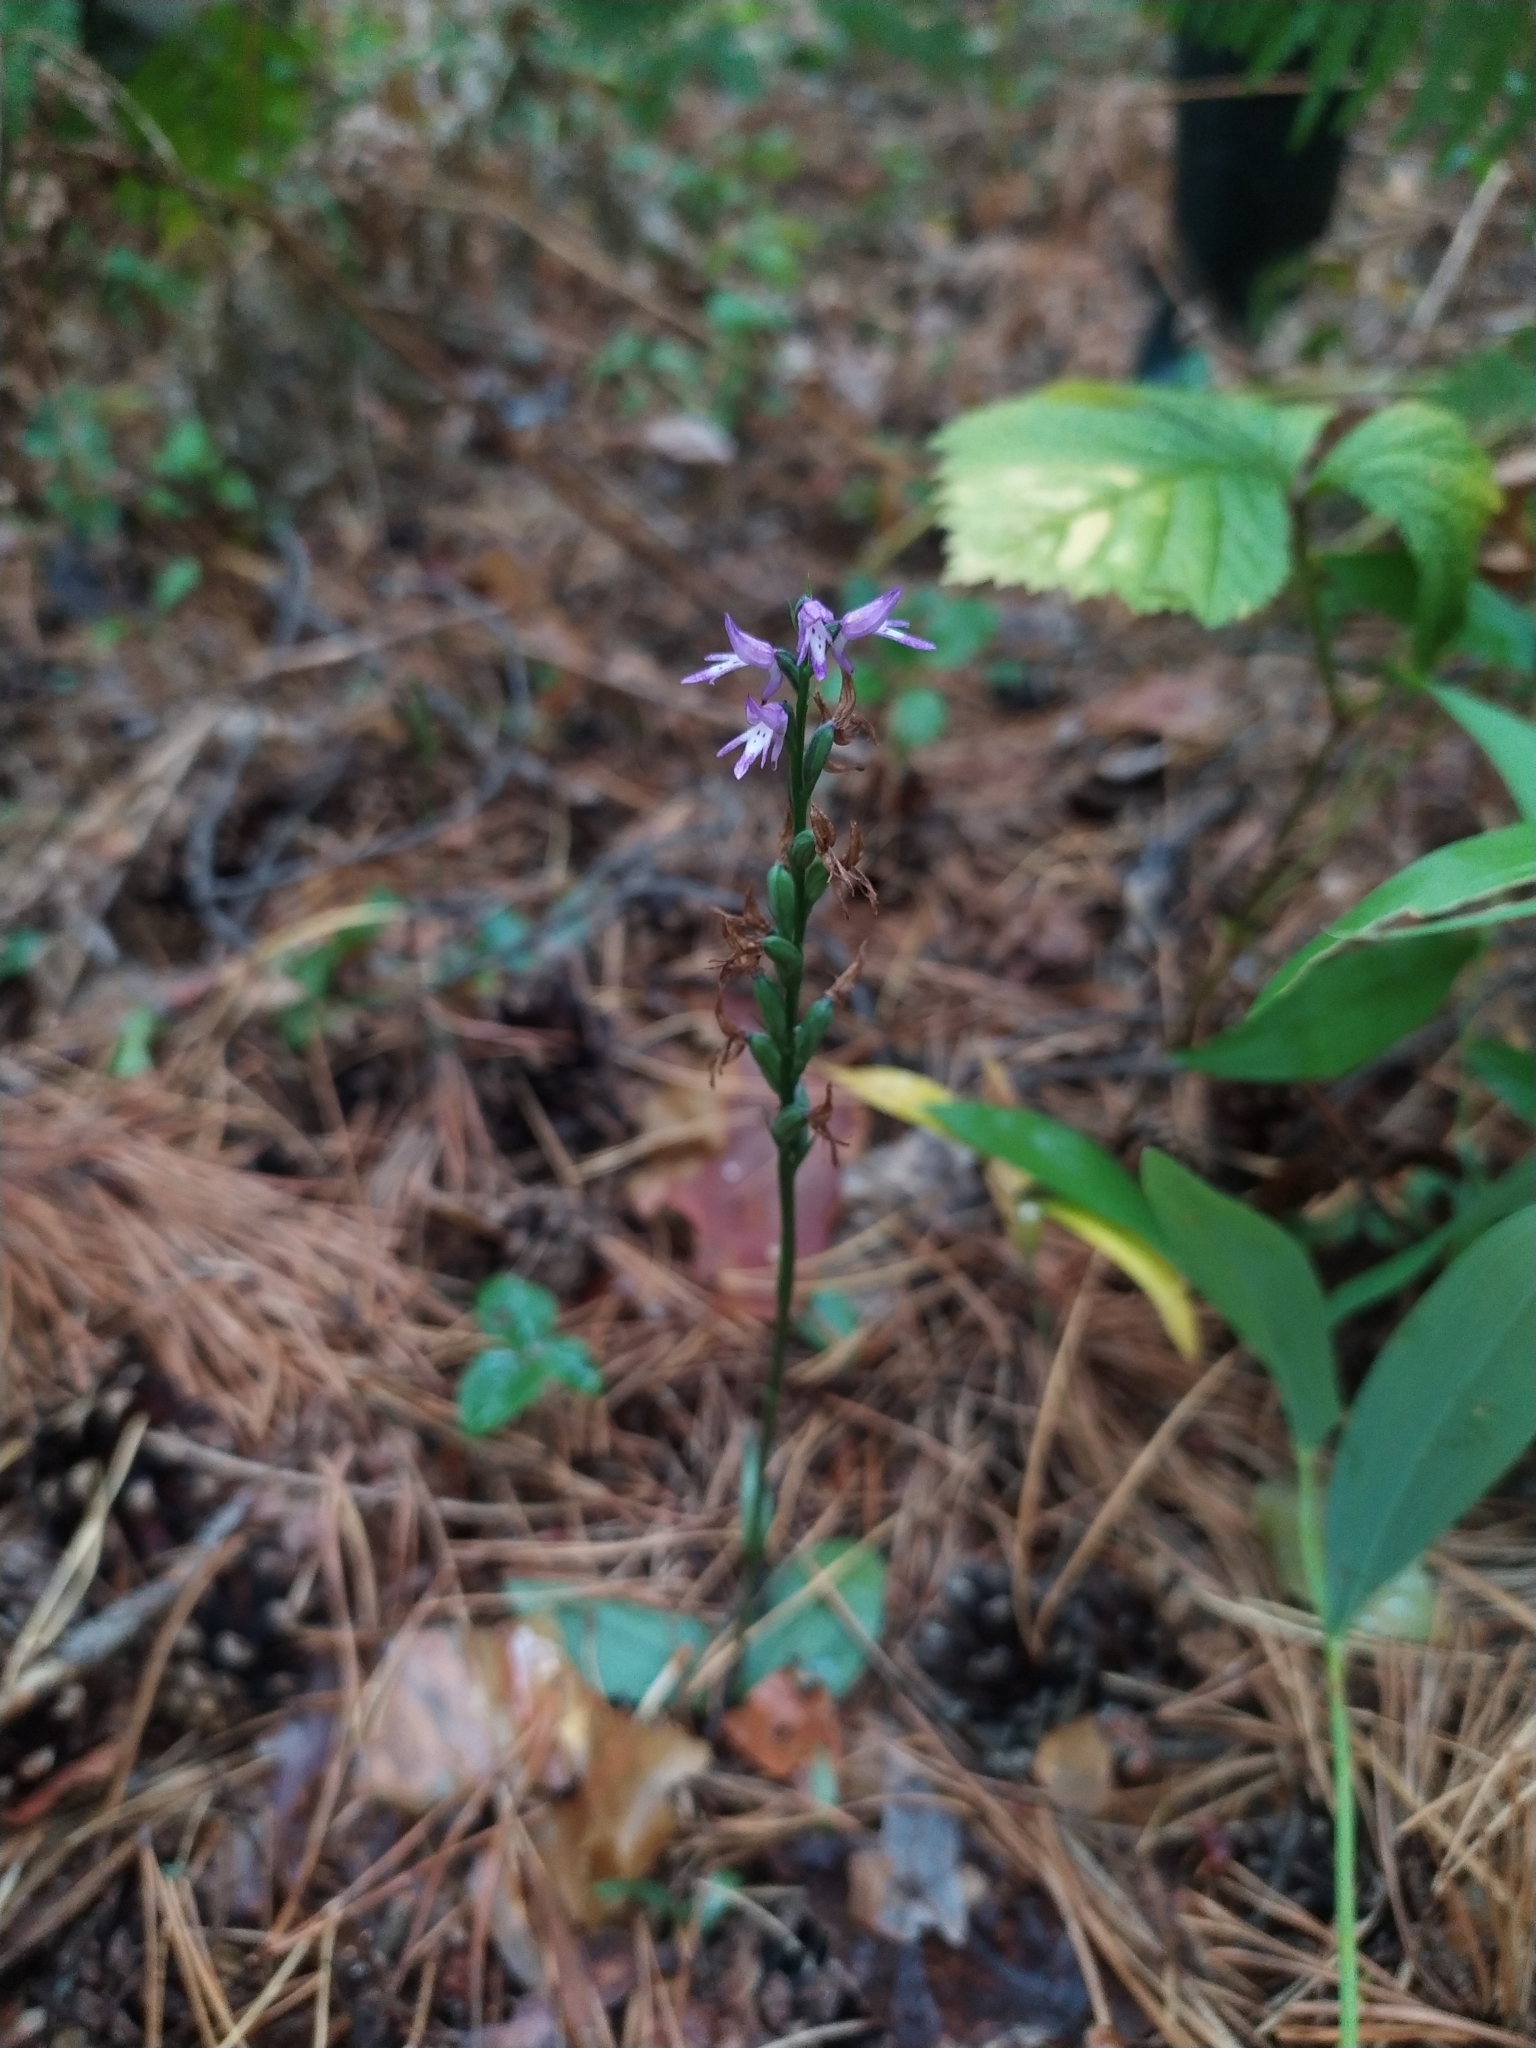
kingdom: Plantae
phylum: Tracheophyta
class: Liliopsida
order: Asparagales
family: Orchidaceae
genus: Hemipilia
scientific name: Hemipilia cucullata
